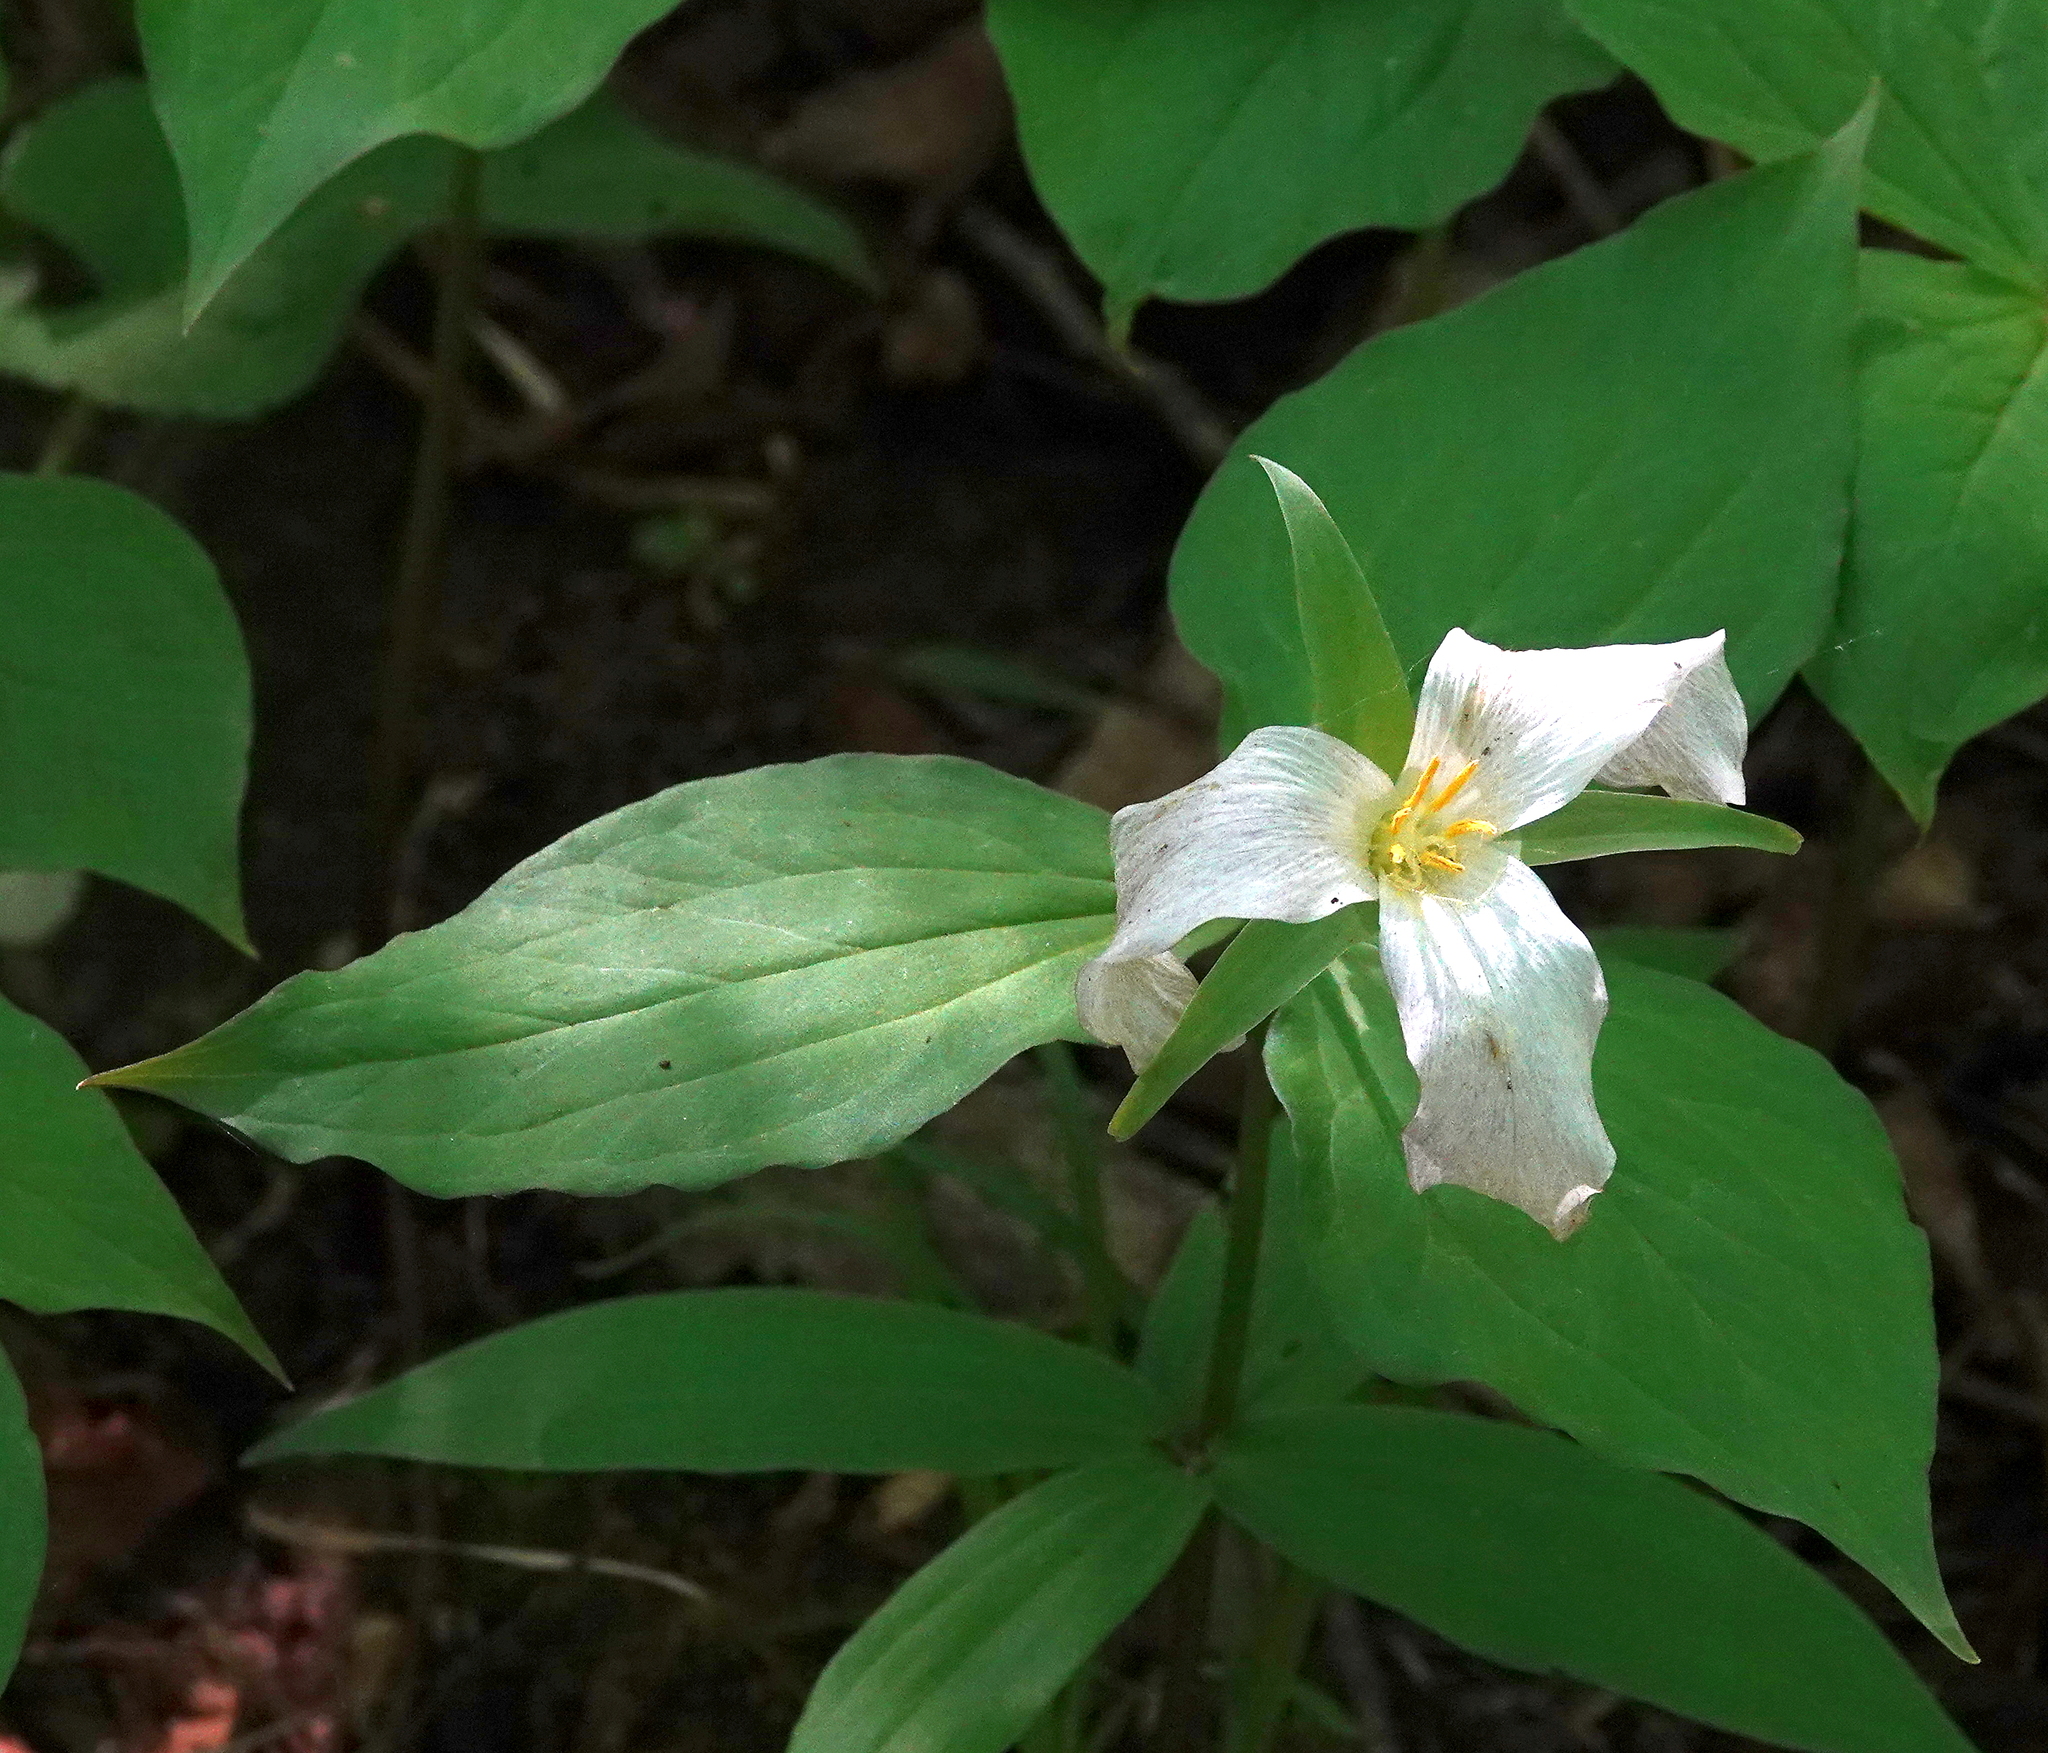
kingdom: Plantae
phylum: Tracheophyta
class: Liliopsida
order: Liliales
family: Melanthiaceae
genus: Trillium
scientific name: Trillium grandiflorum
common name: Great white trillium
